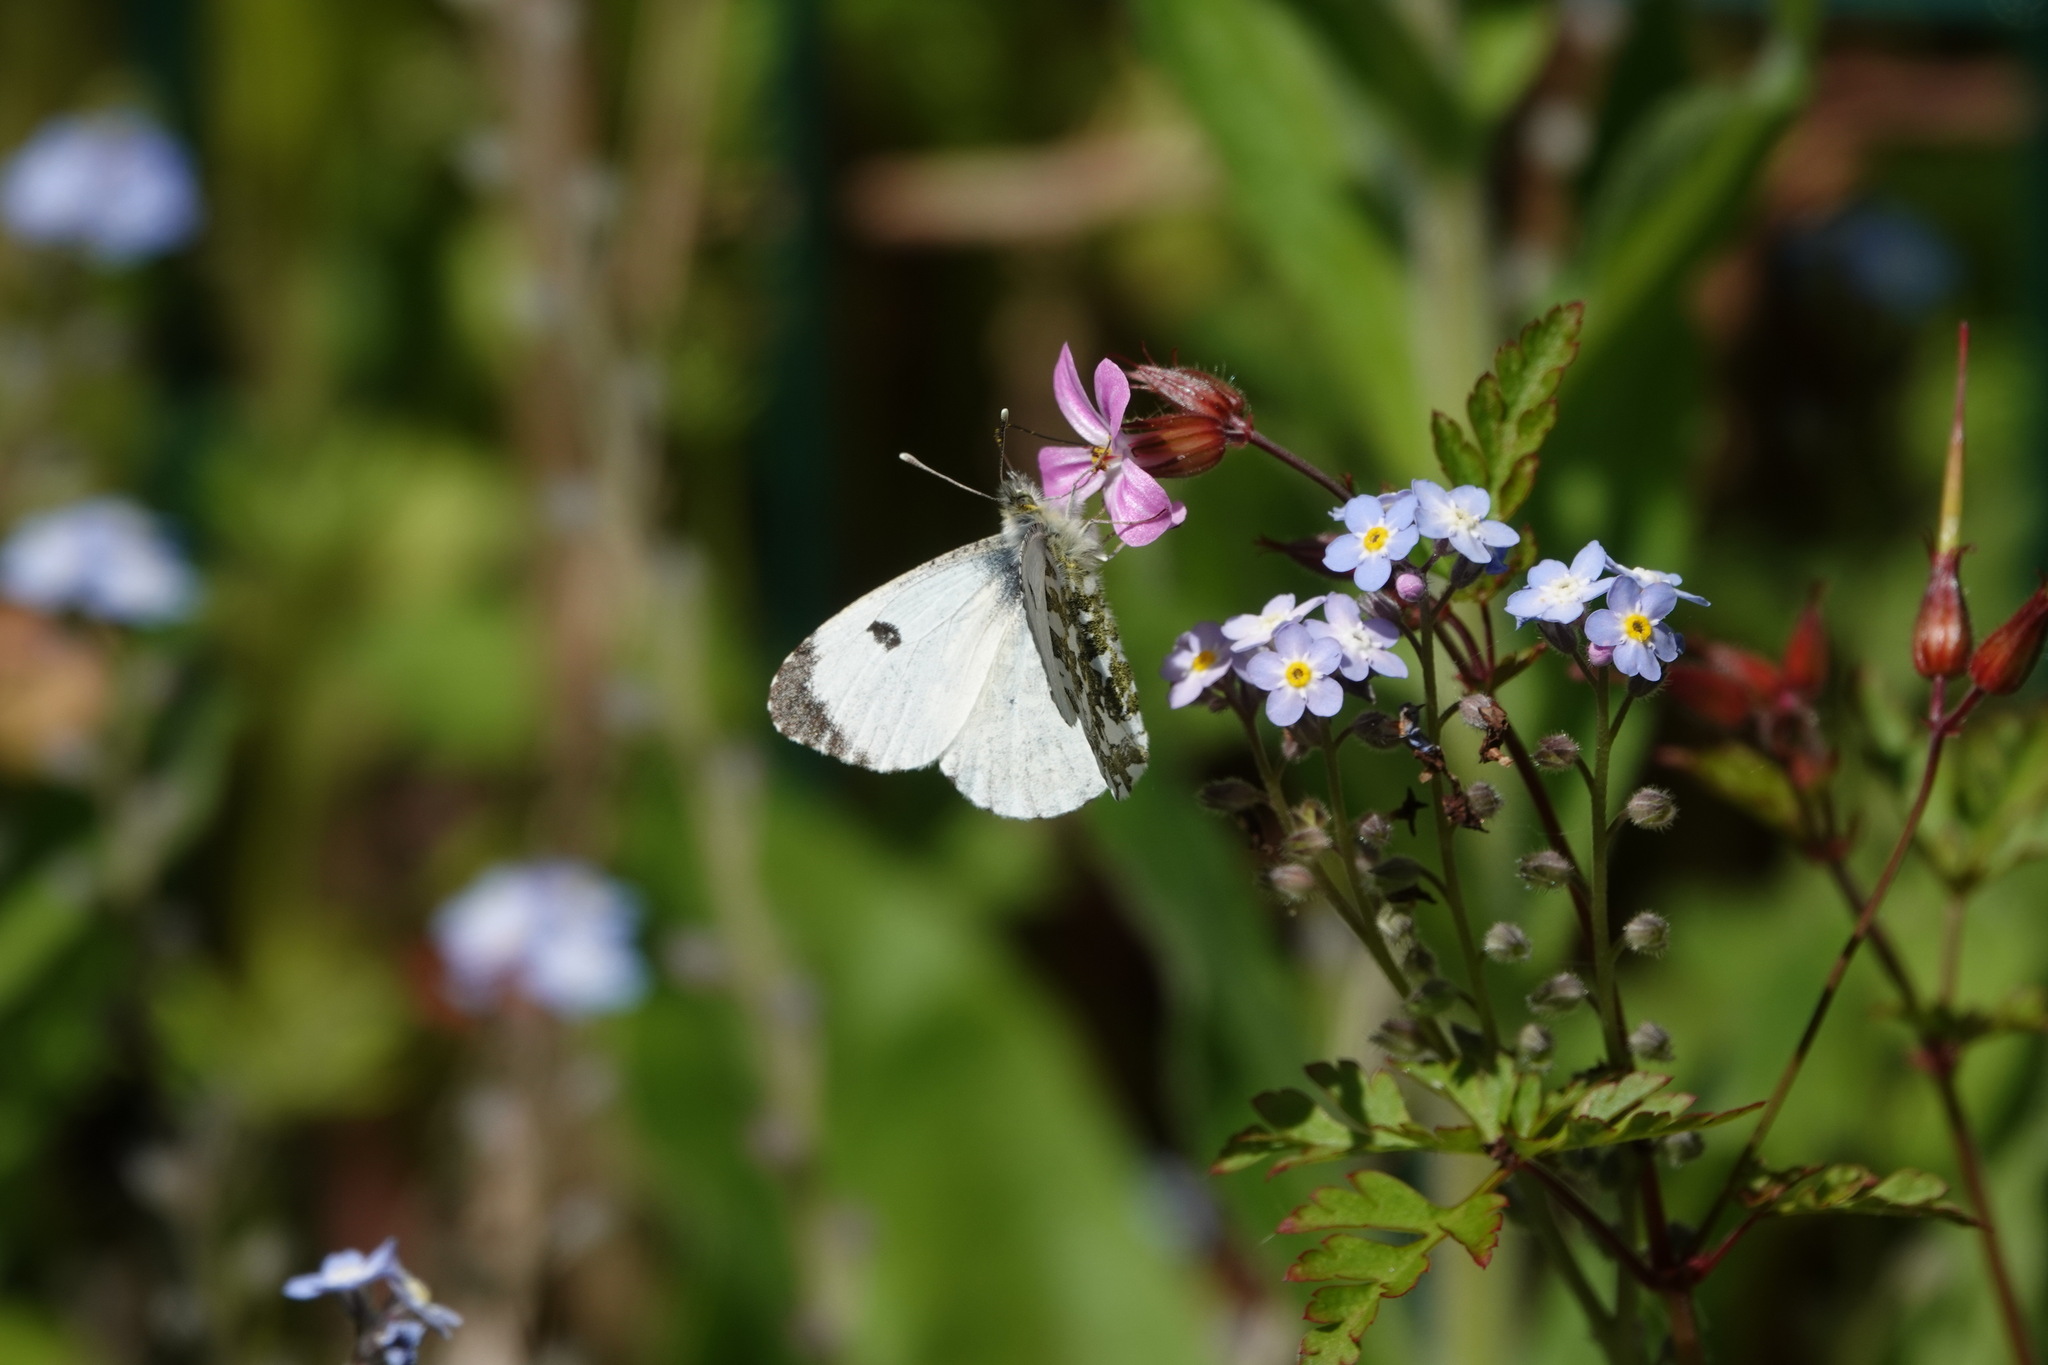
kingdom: Animalia
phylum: Arthropoda
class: Insecta
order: Lepidoptera
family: Pieridae
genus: Anthocharis
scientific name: Anthocharis cardamines
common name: Orange-tip
